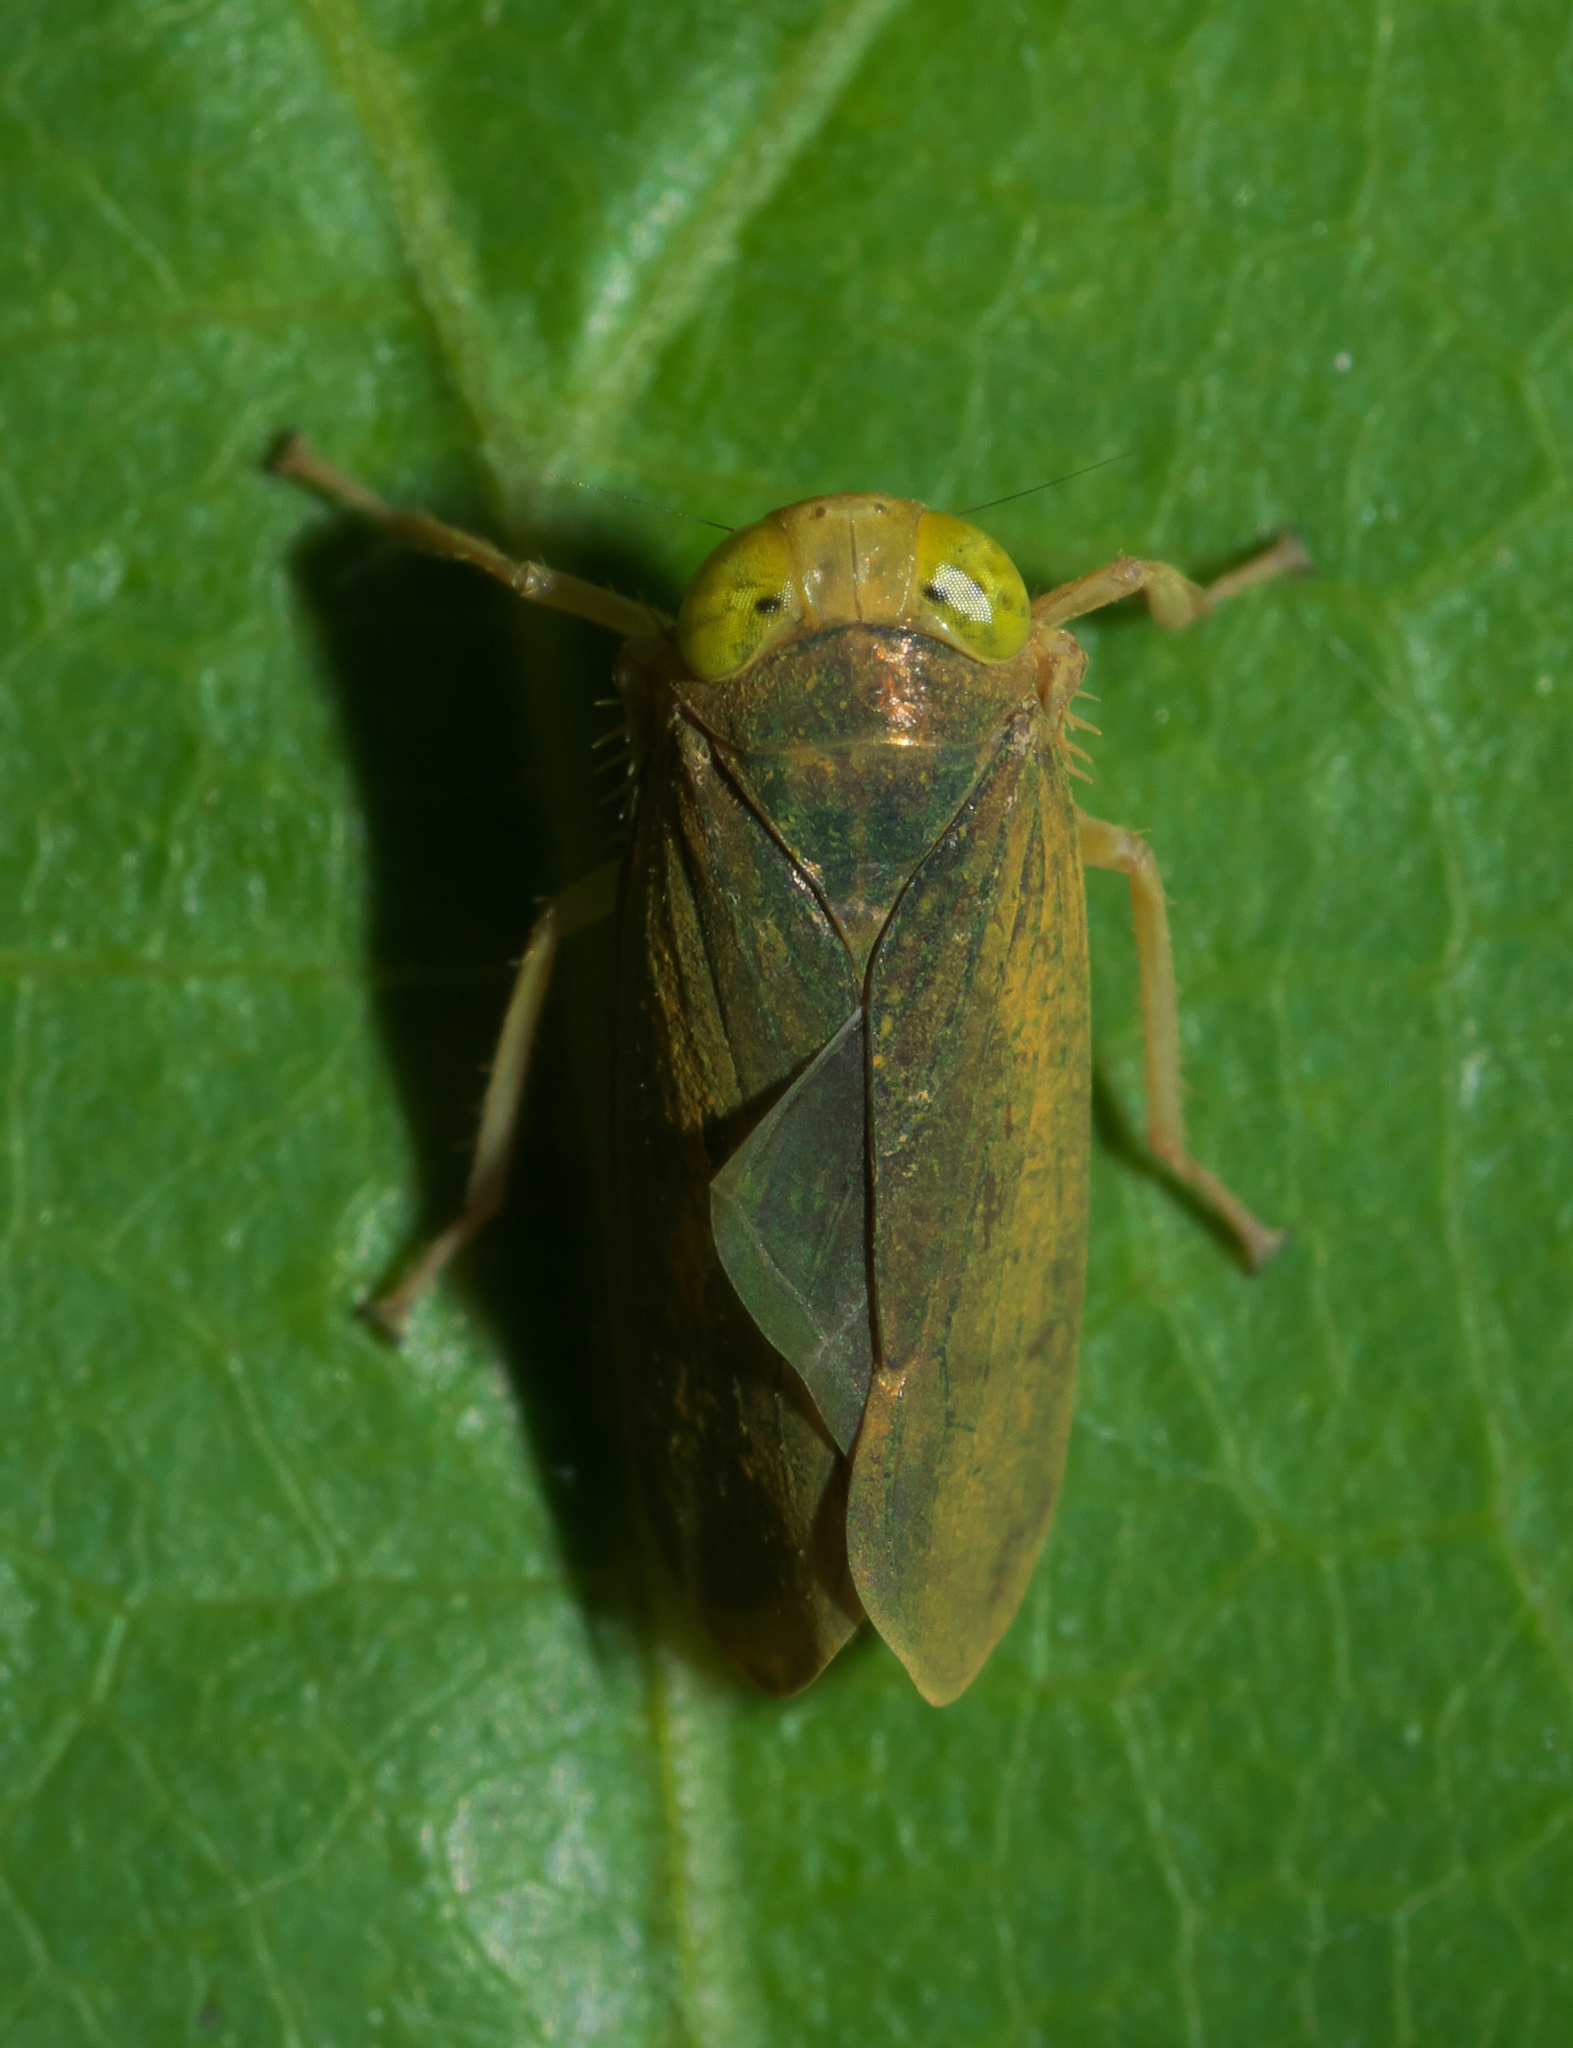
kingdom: Animalia
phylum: Arthropoda
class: Insecta
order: Hemiptera
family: Cicadellidae
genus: Jikradia
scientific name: Jikradia olitoria
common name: Coppery leafhopper
